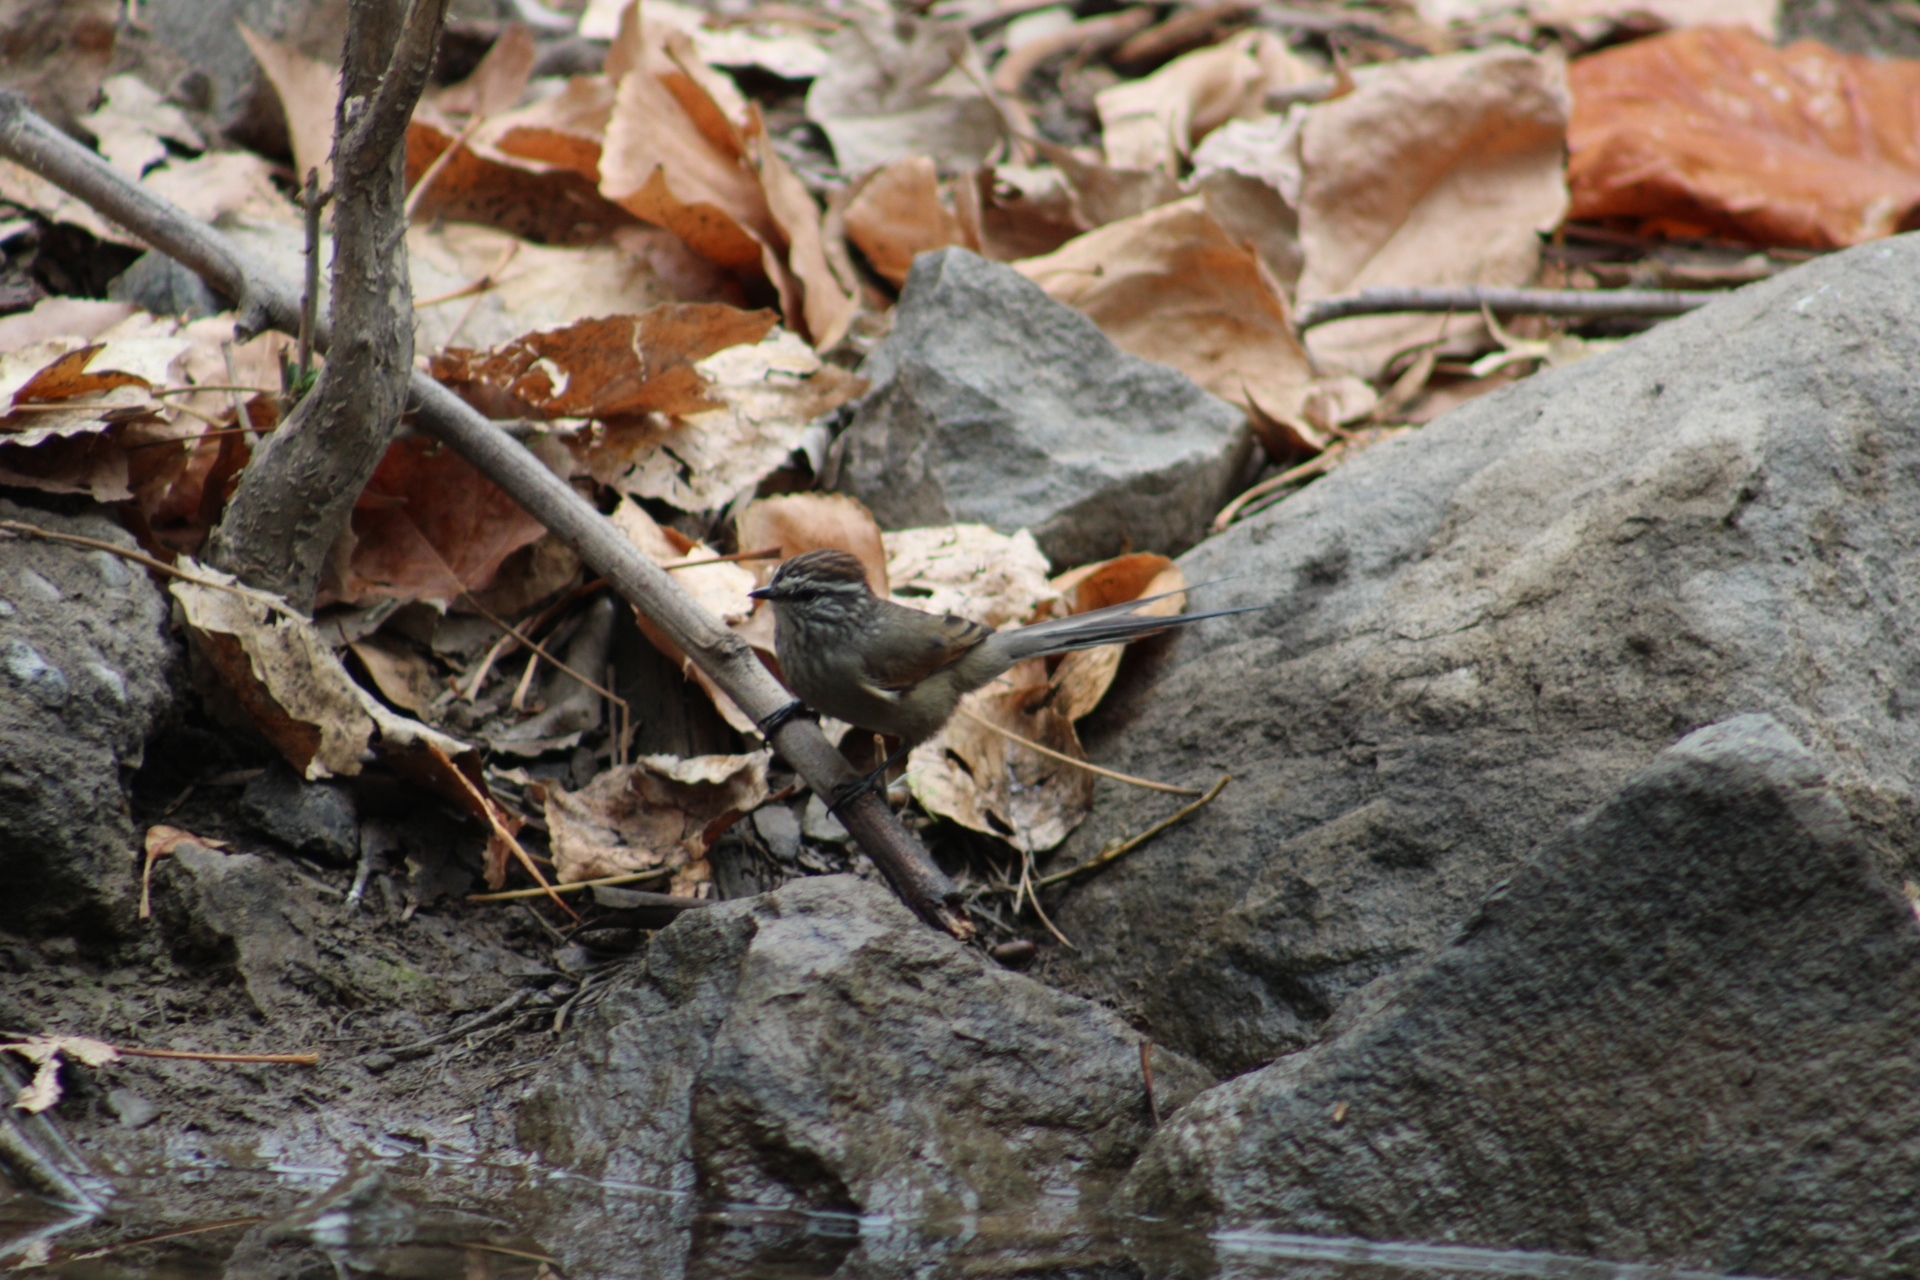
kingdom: Animalia
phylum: Chordata
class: Aves
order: Passeriformes
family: Furnariidae
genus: Leptasthenura
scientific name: Leptasthenura aegithaloides
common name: Plain-mantled tit-spinetail
